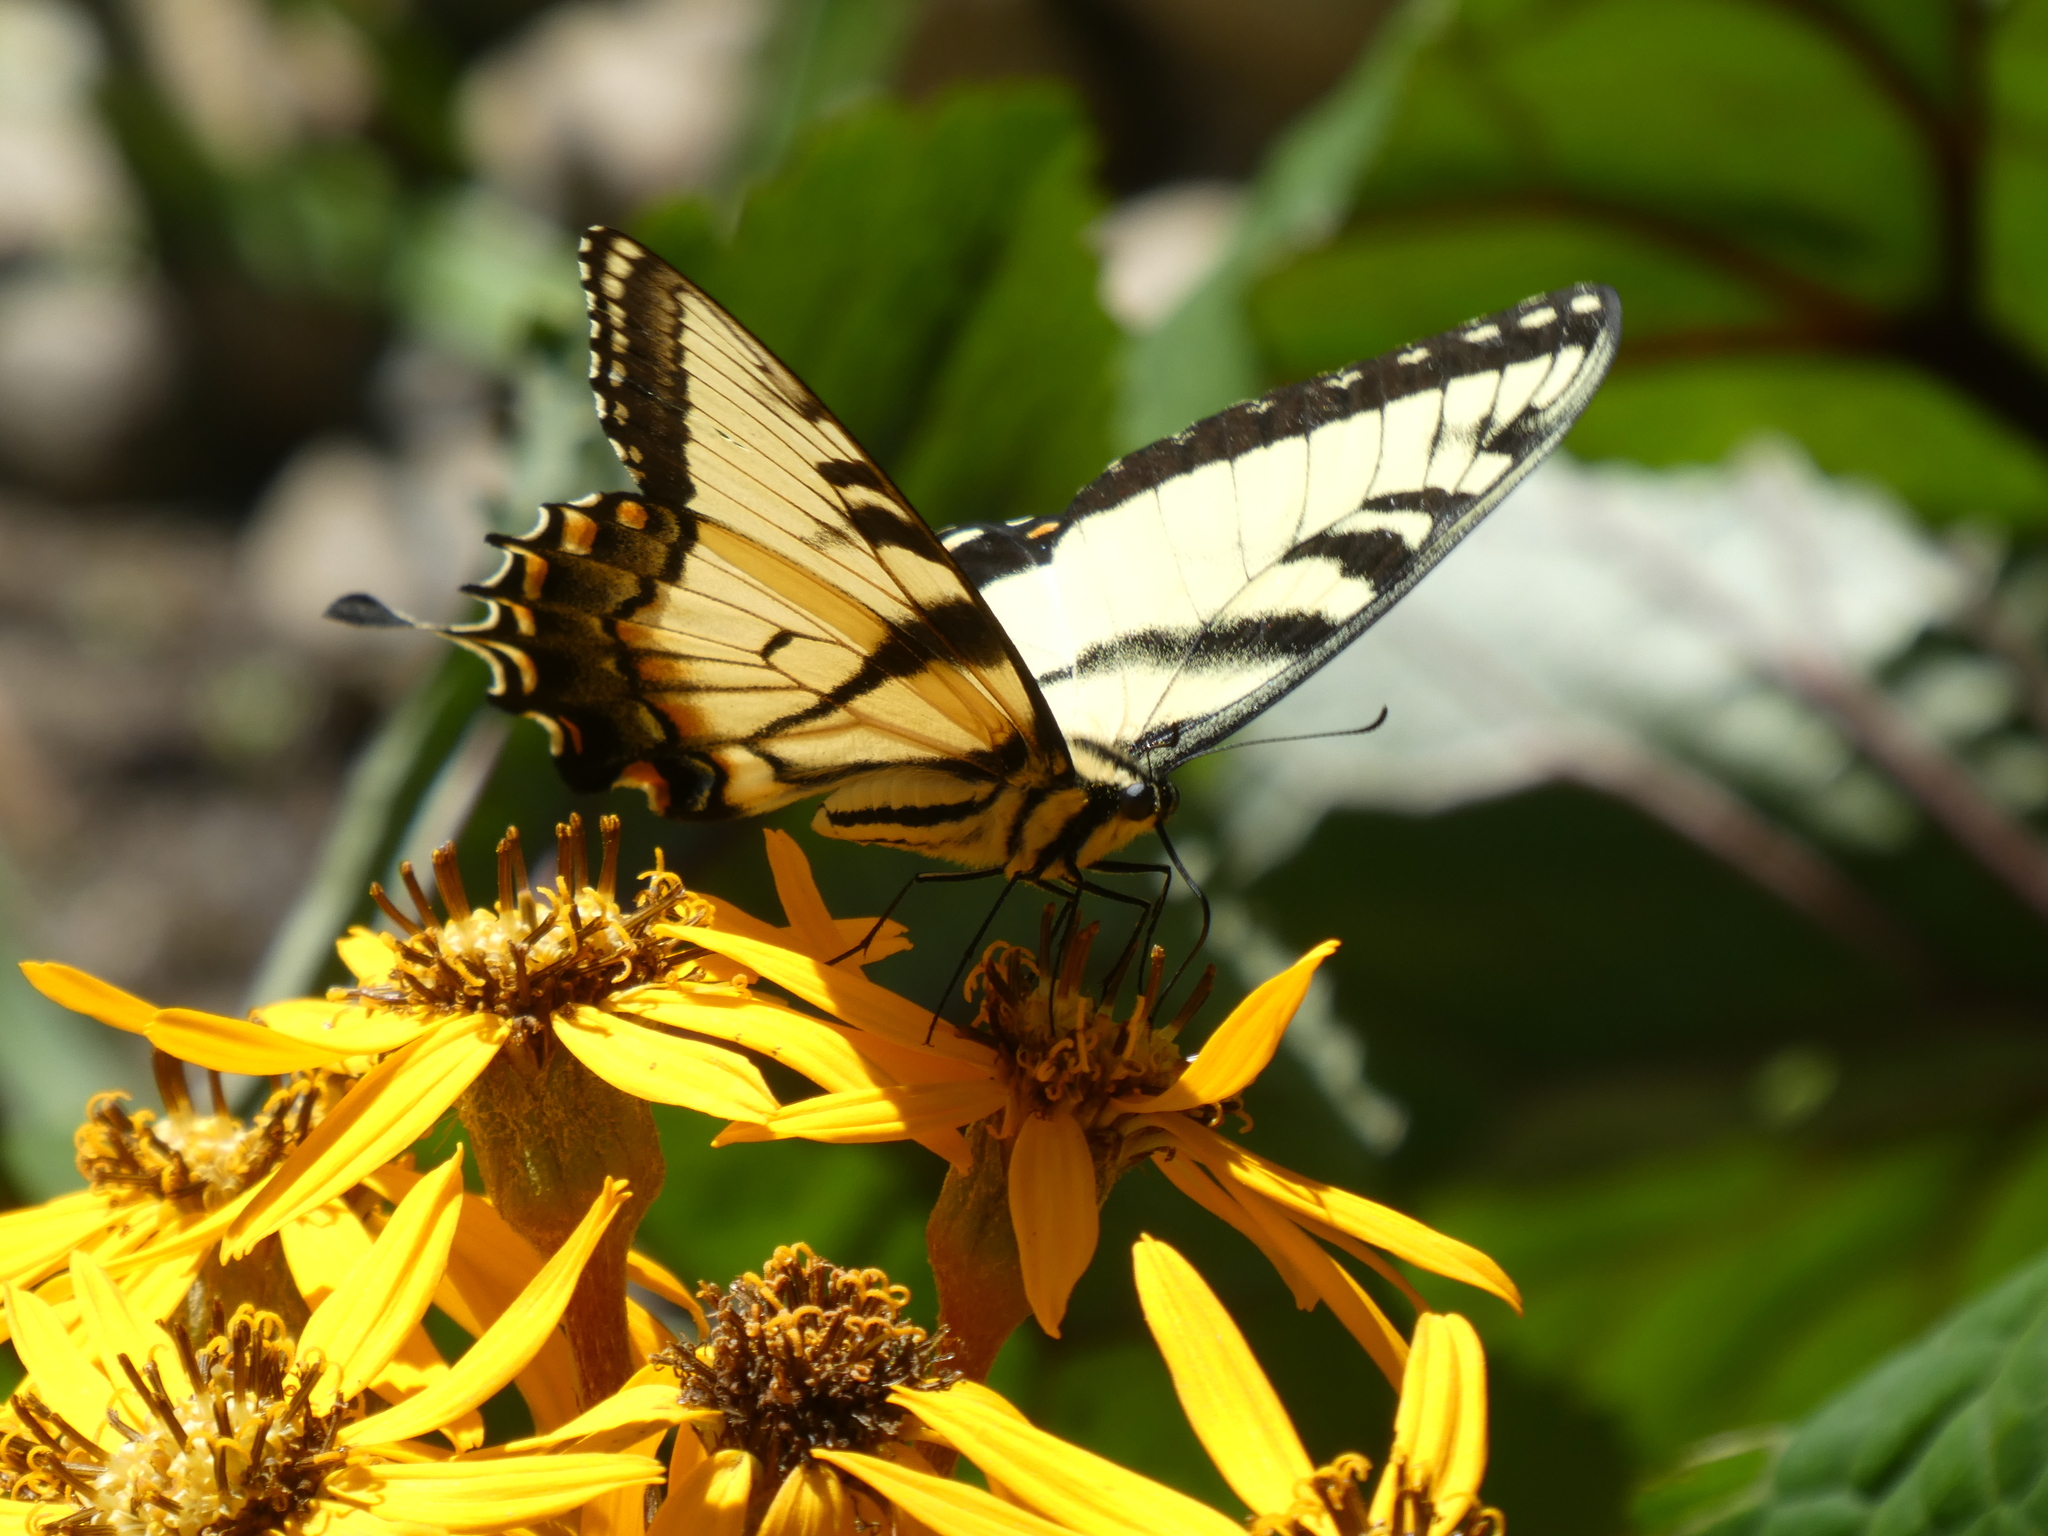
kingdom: Animalia
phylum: Arthropoda
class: Insecta
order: Lepidoptera
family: Papilionidae
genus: Papilio
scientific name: Papilio glaucus
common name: Tiger swallowtail
